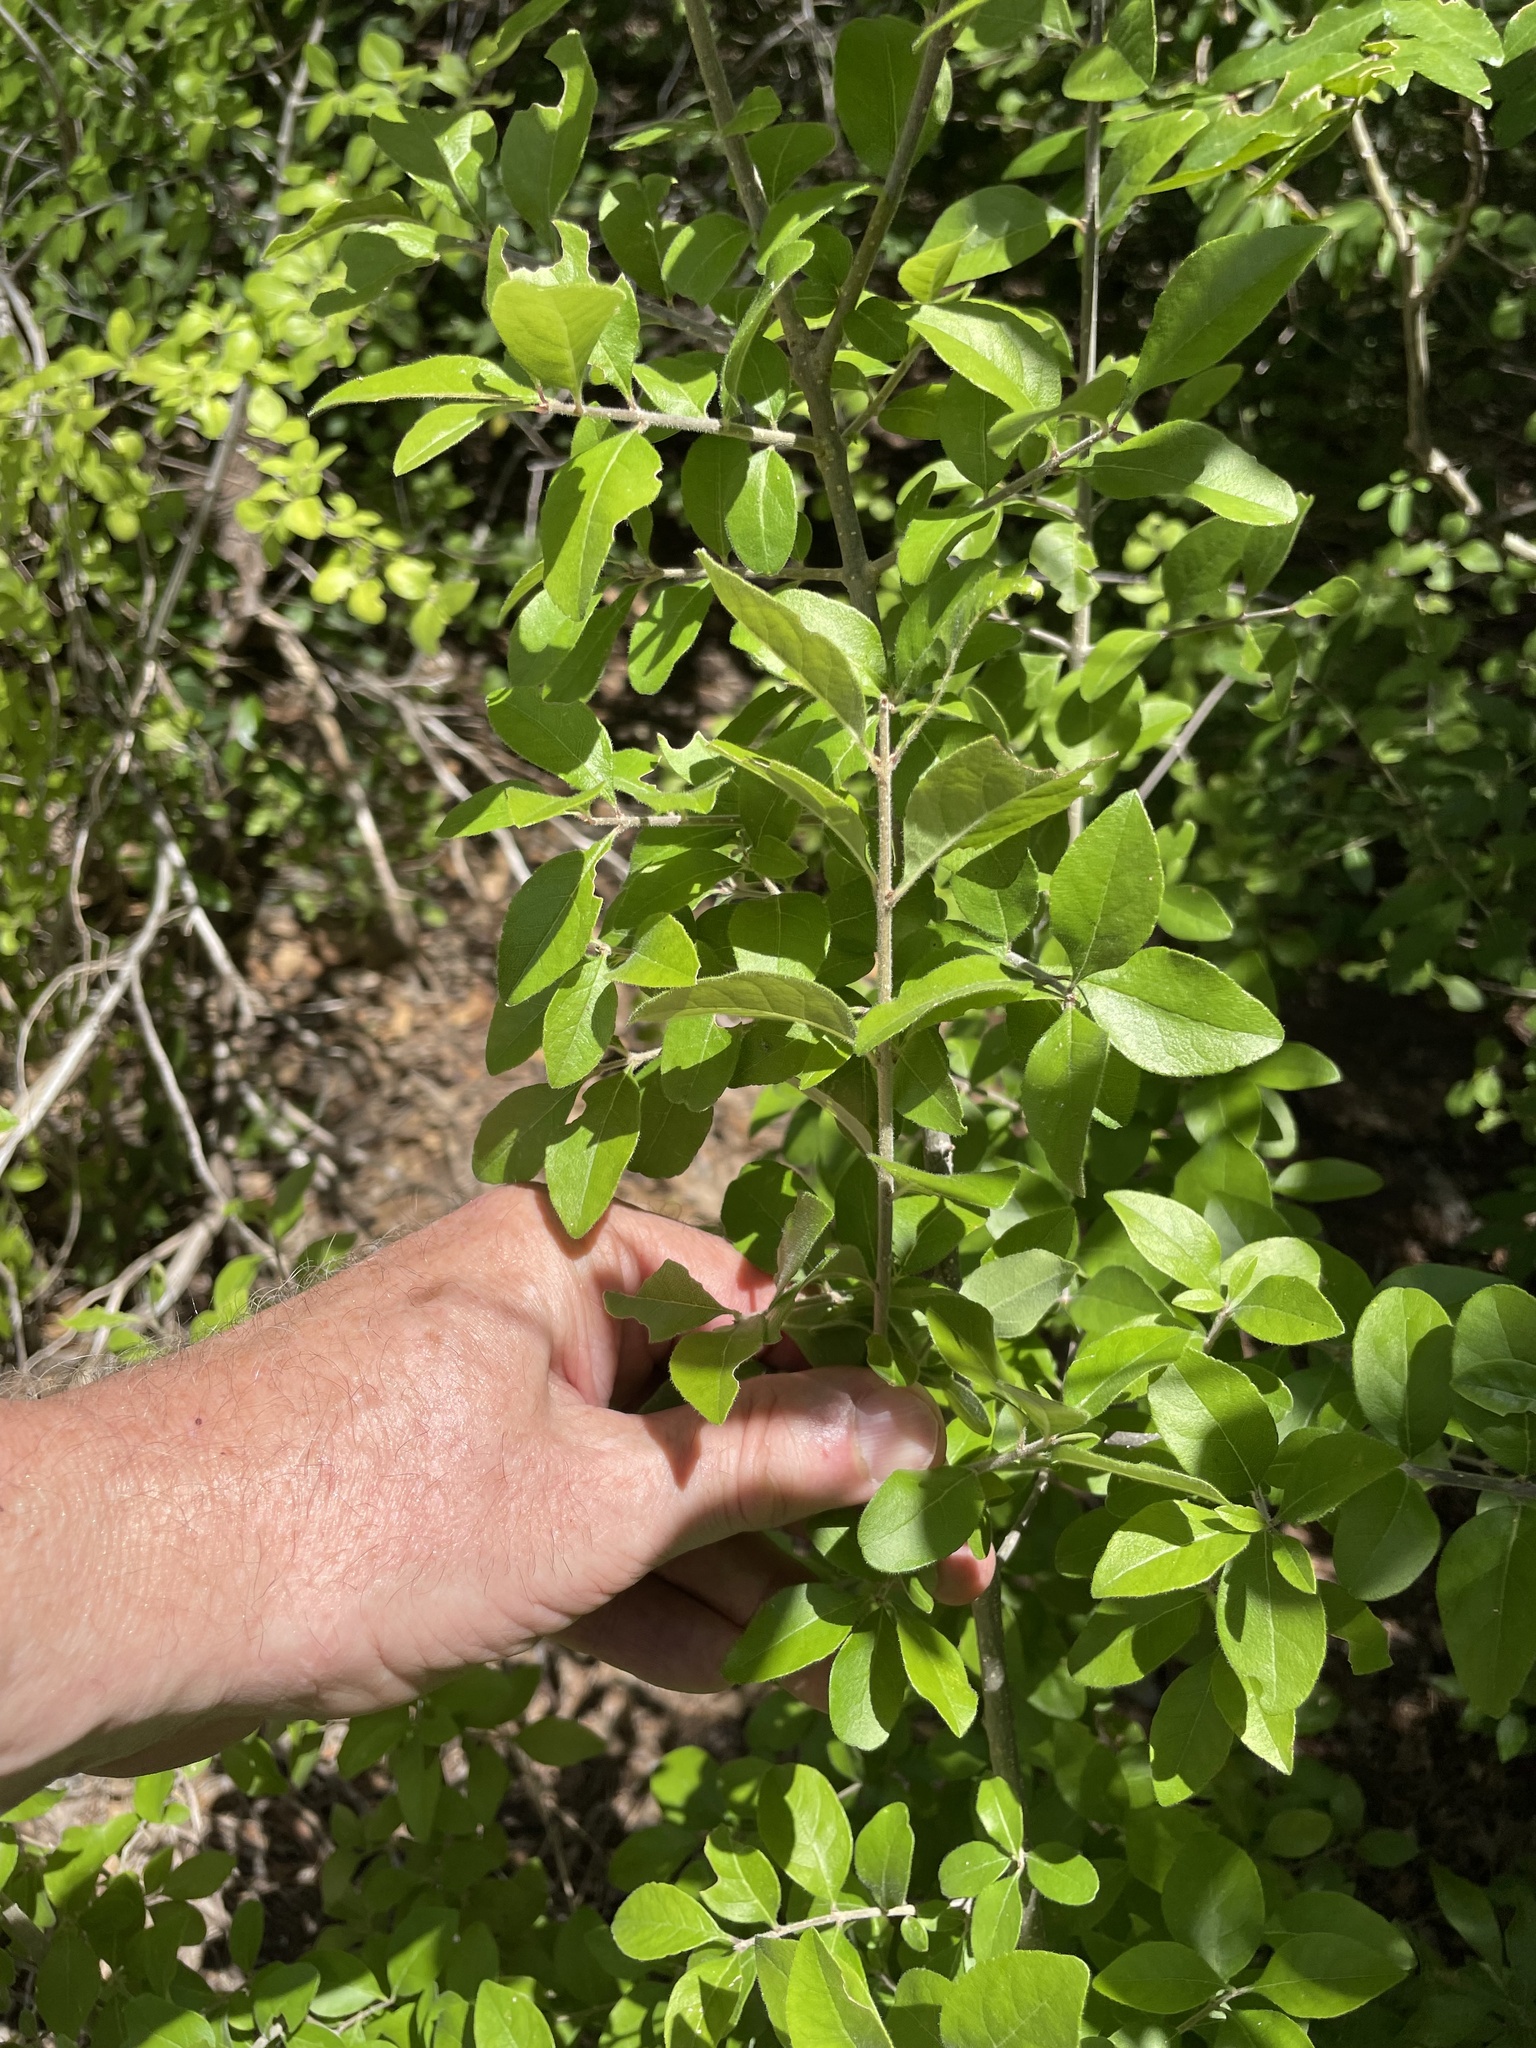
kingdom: Plantae
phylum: Tracheophyta
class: Magnoliopsida
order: Lamiales
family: Oleaceae
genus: Forestiera
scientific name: Forestiera pubescens
